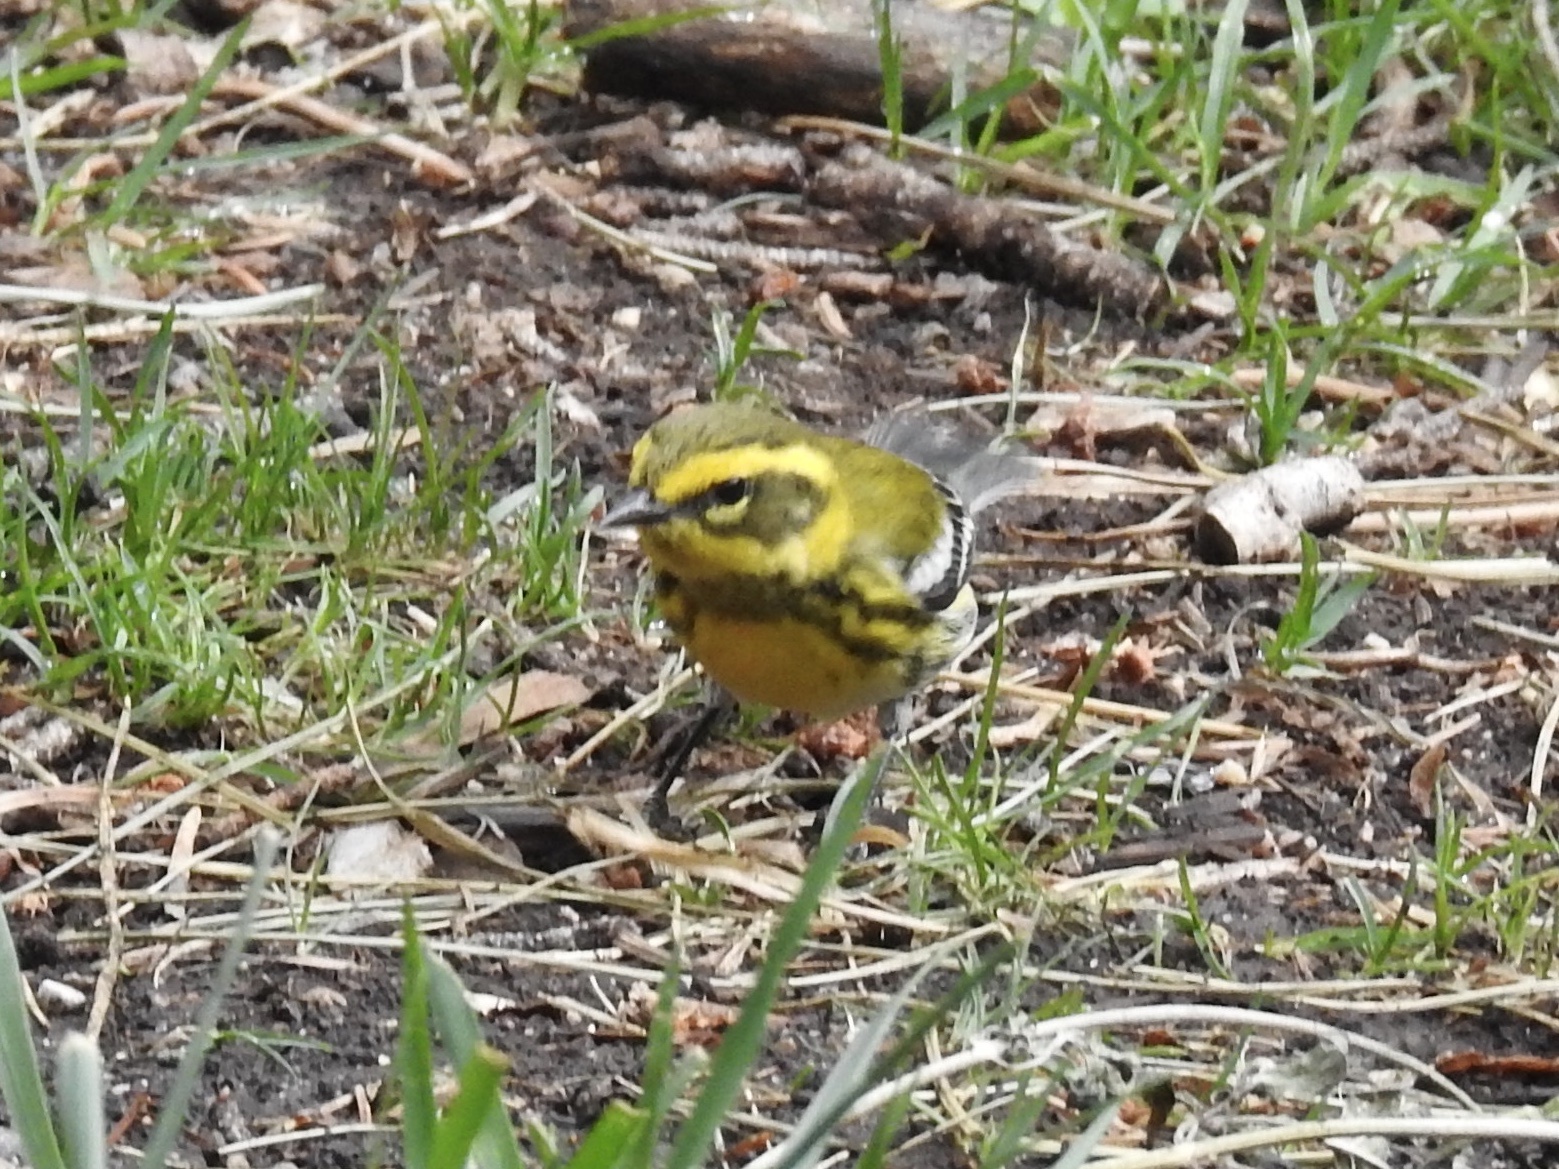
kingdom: Animalia
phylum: Chordata
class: Aves
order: Passeriformes
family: Parulidae
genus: Setophaga
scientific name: Setophaga townsendi
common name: Townsend's warbler
